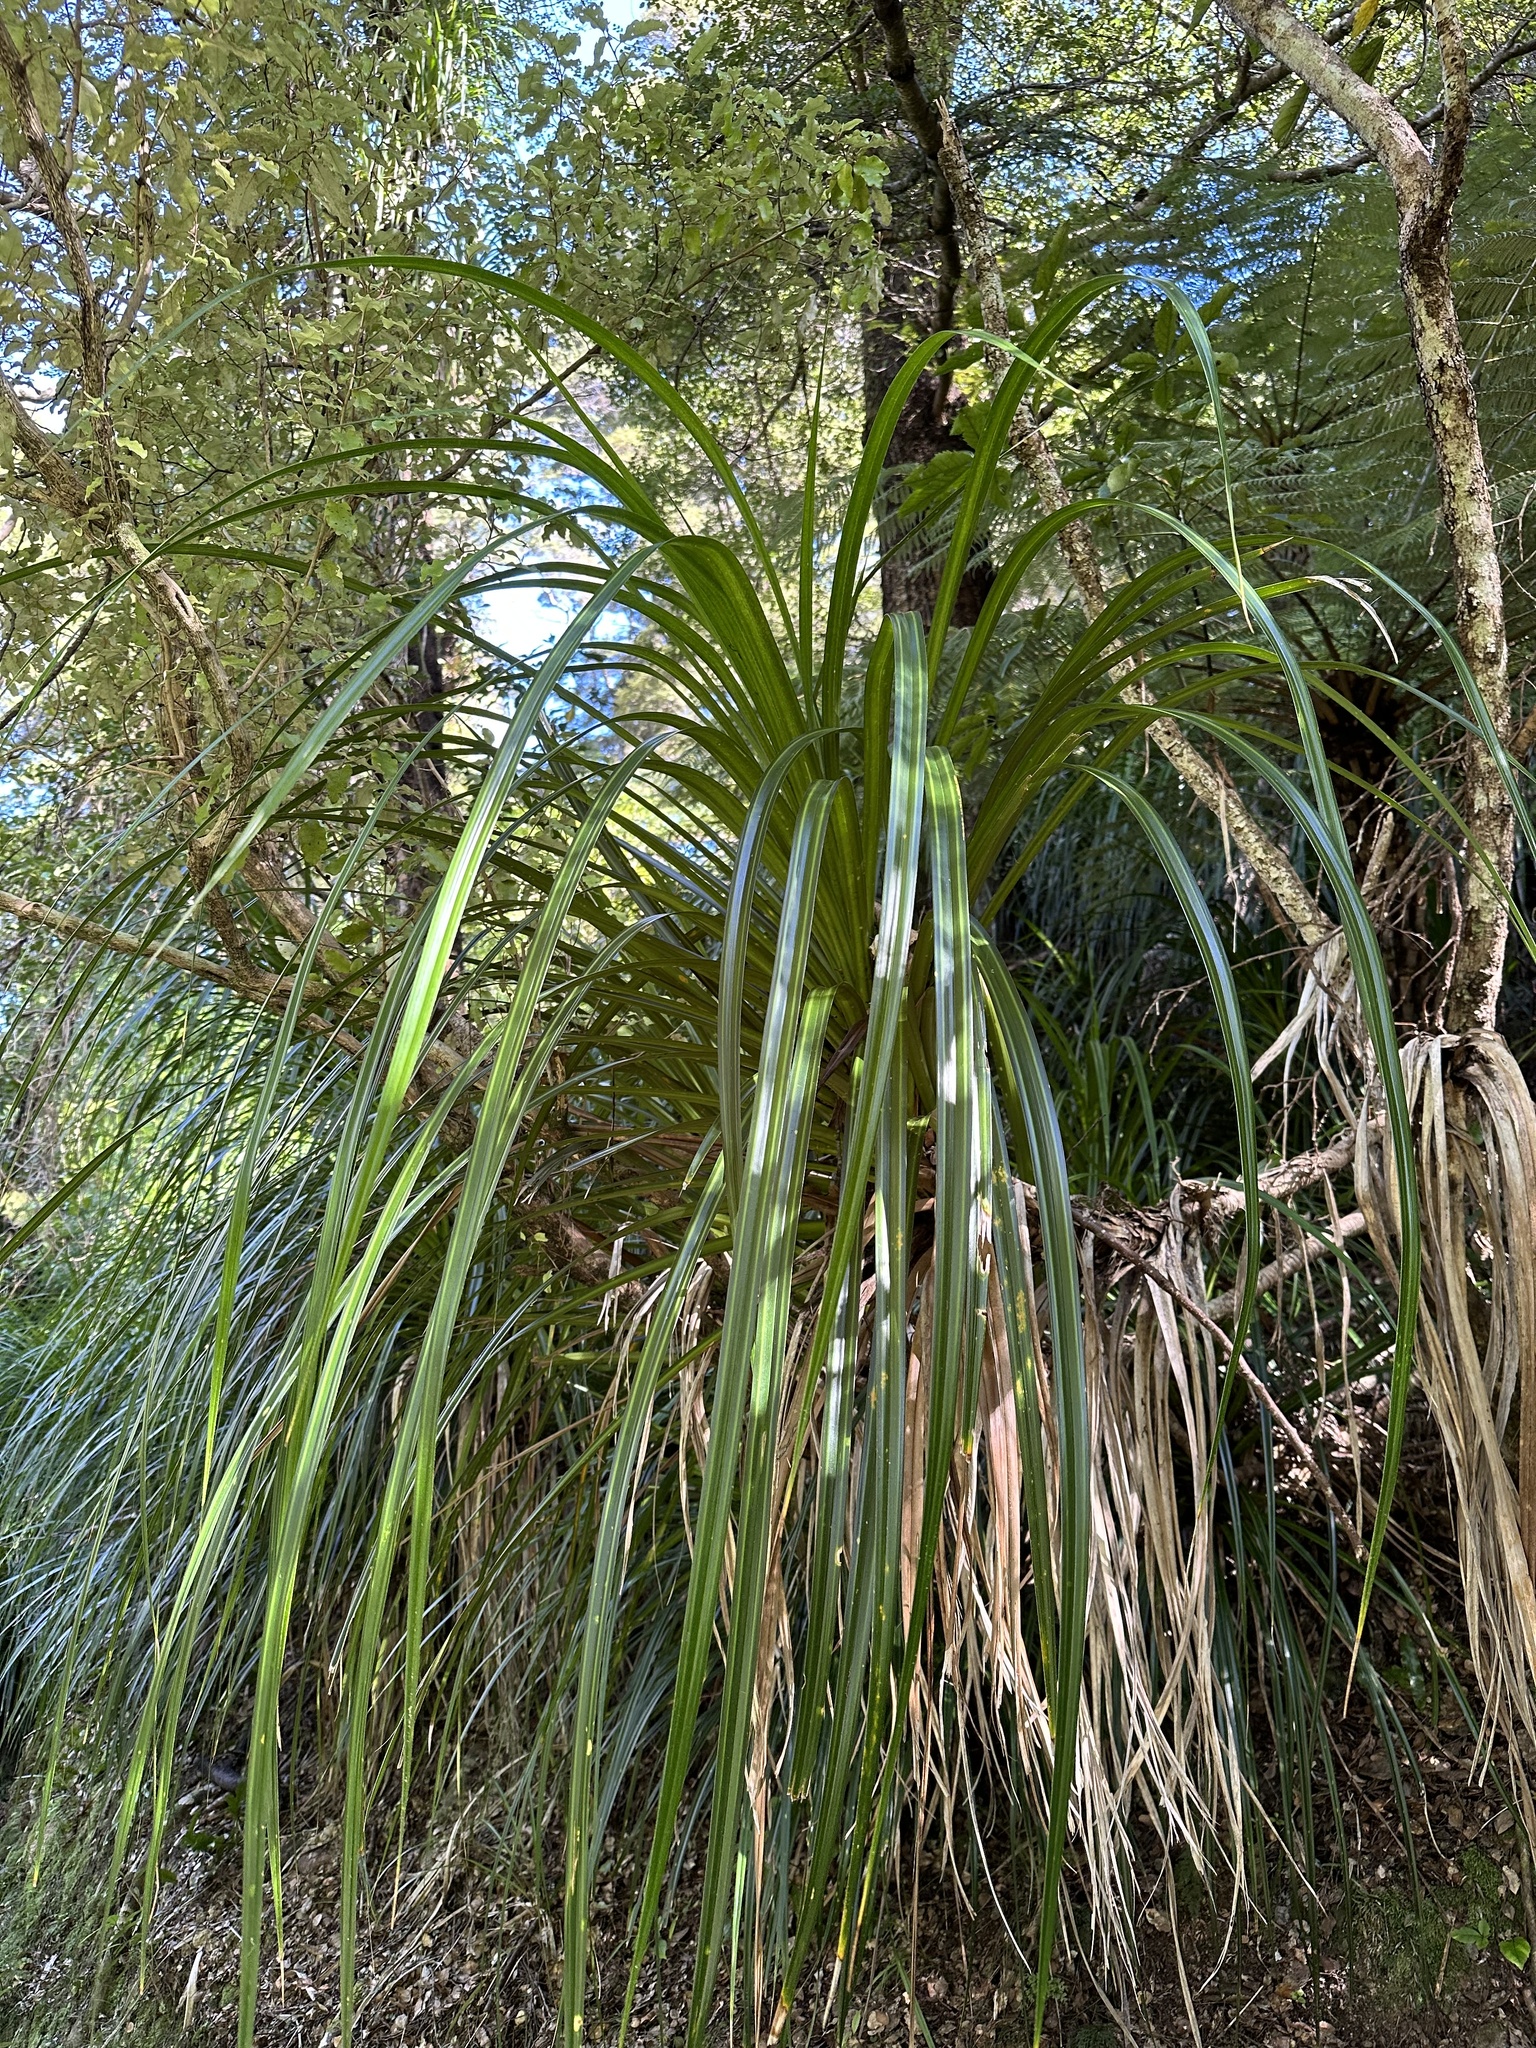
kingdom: Plantae
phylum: Tracheophyta
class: Liliopsida
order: Pandanales
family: Pandanaceae
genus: Freycinetia
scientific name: Freycinetia banksii
